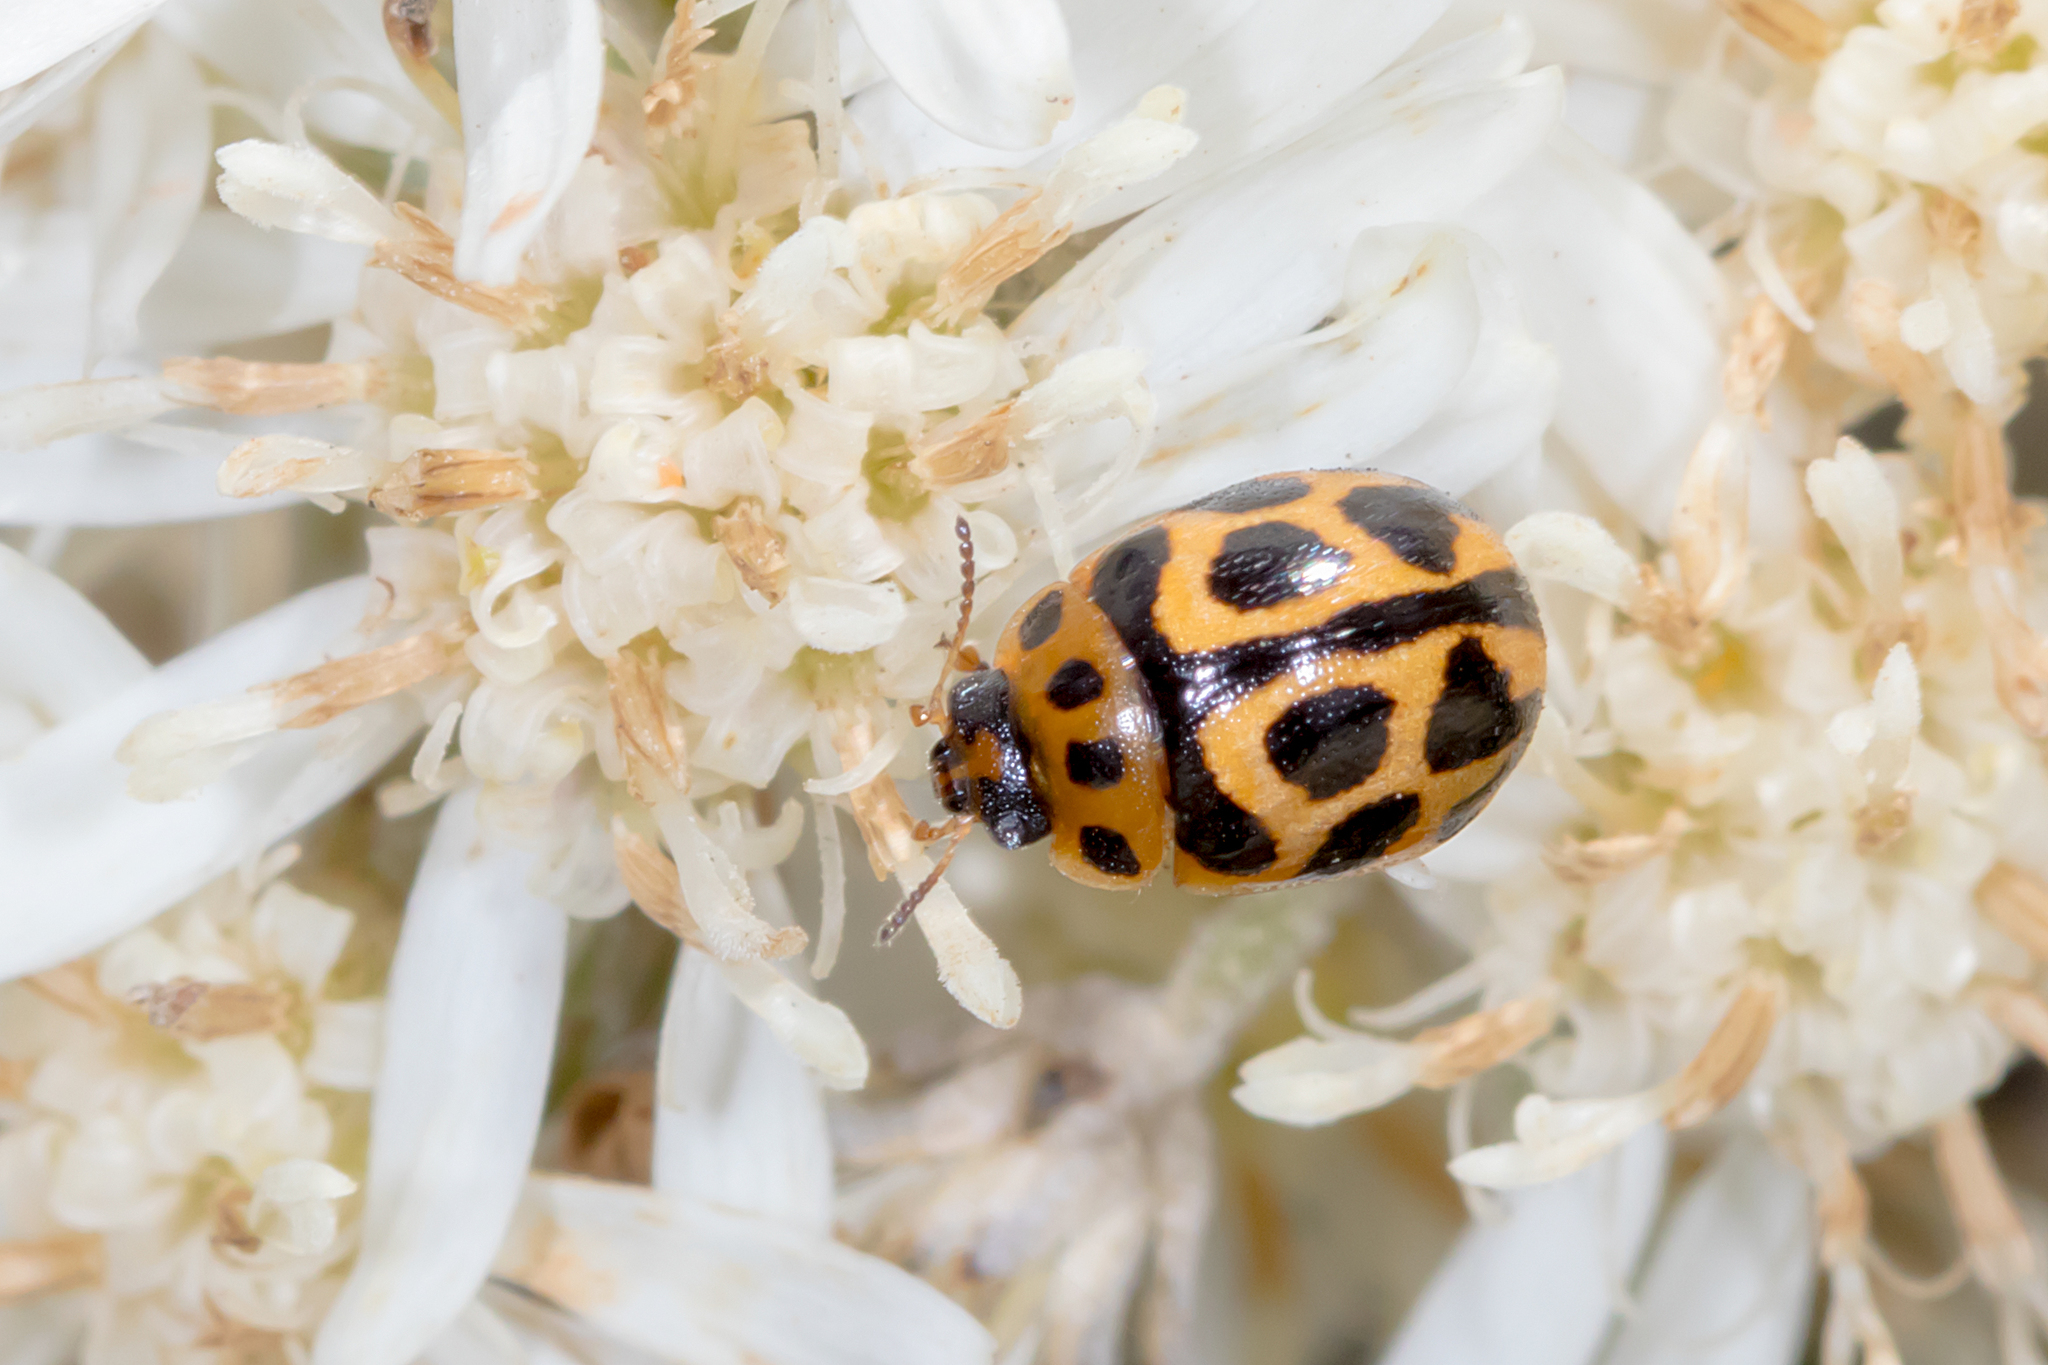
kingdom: Animalia
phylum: Arthropoda
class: Insecta
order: Coleoptera
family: Chrysomelidae
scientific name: Chrysomelidae
